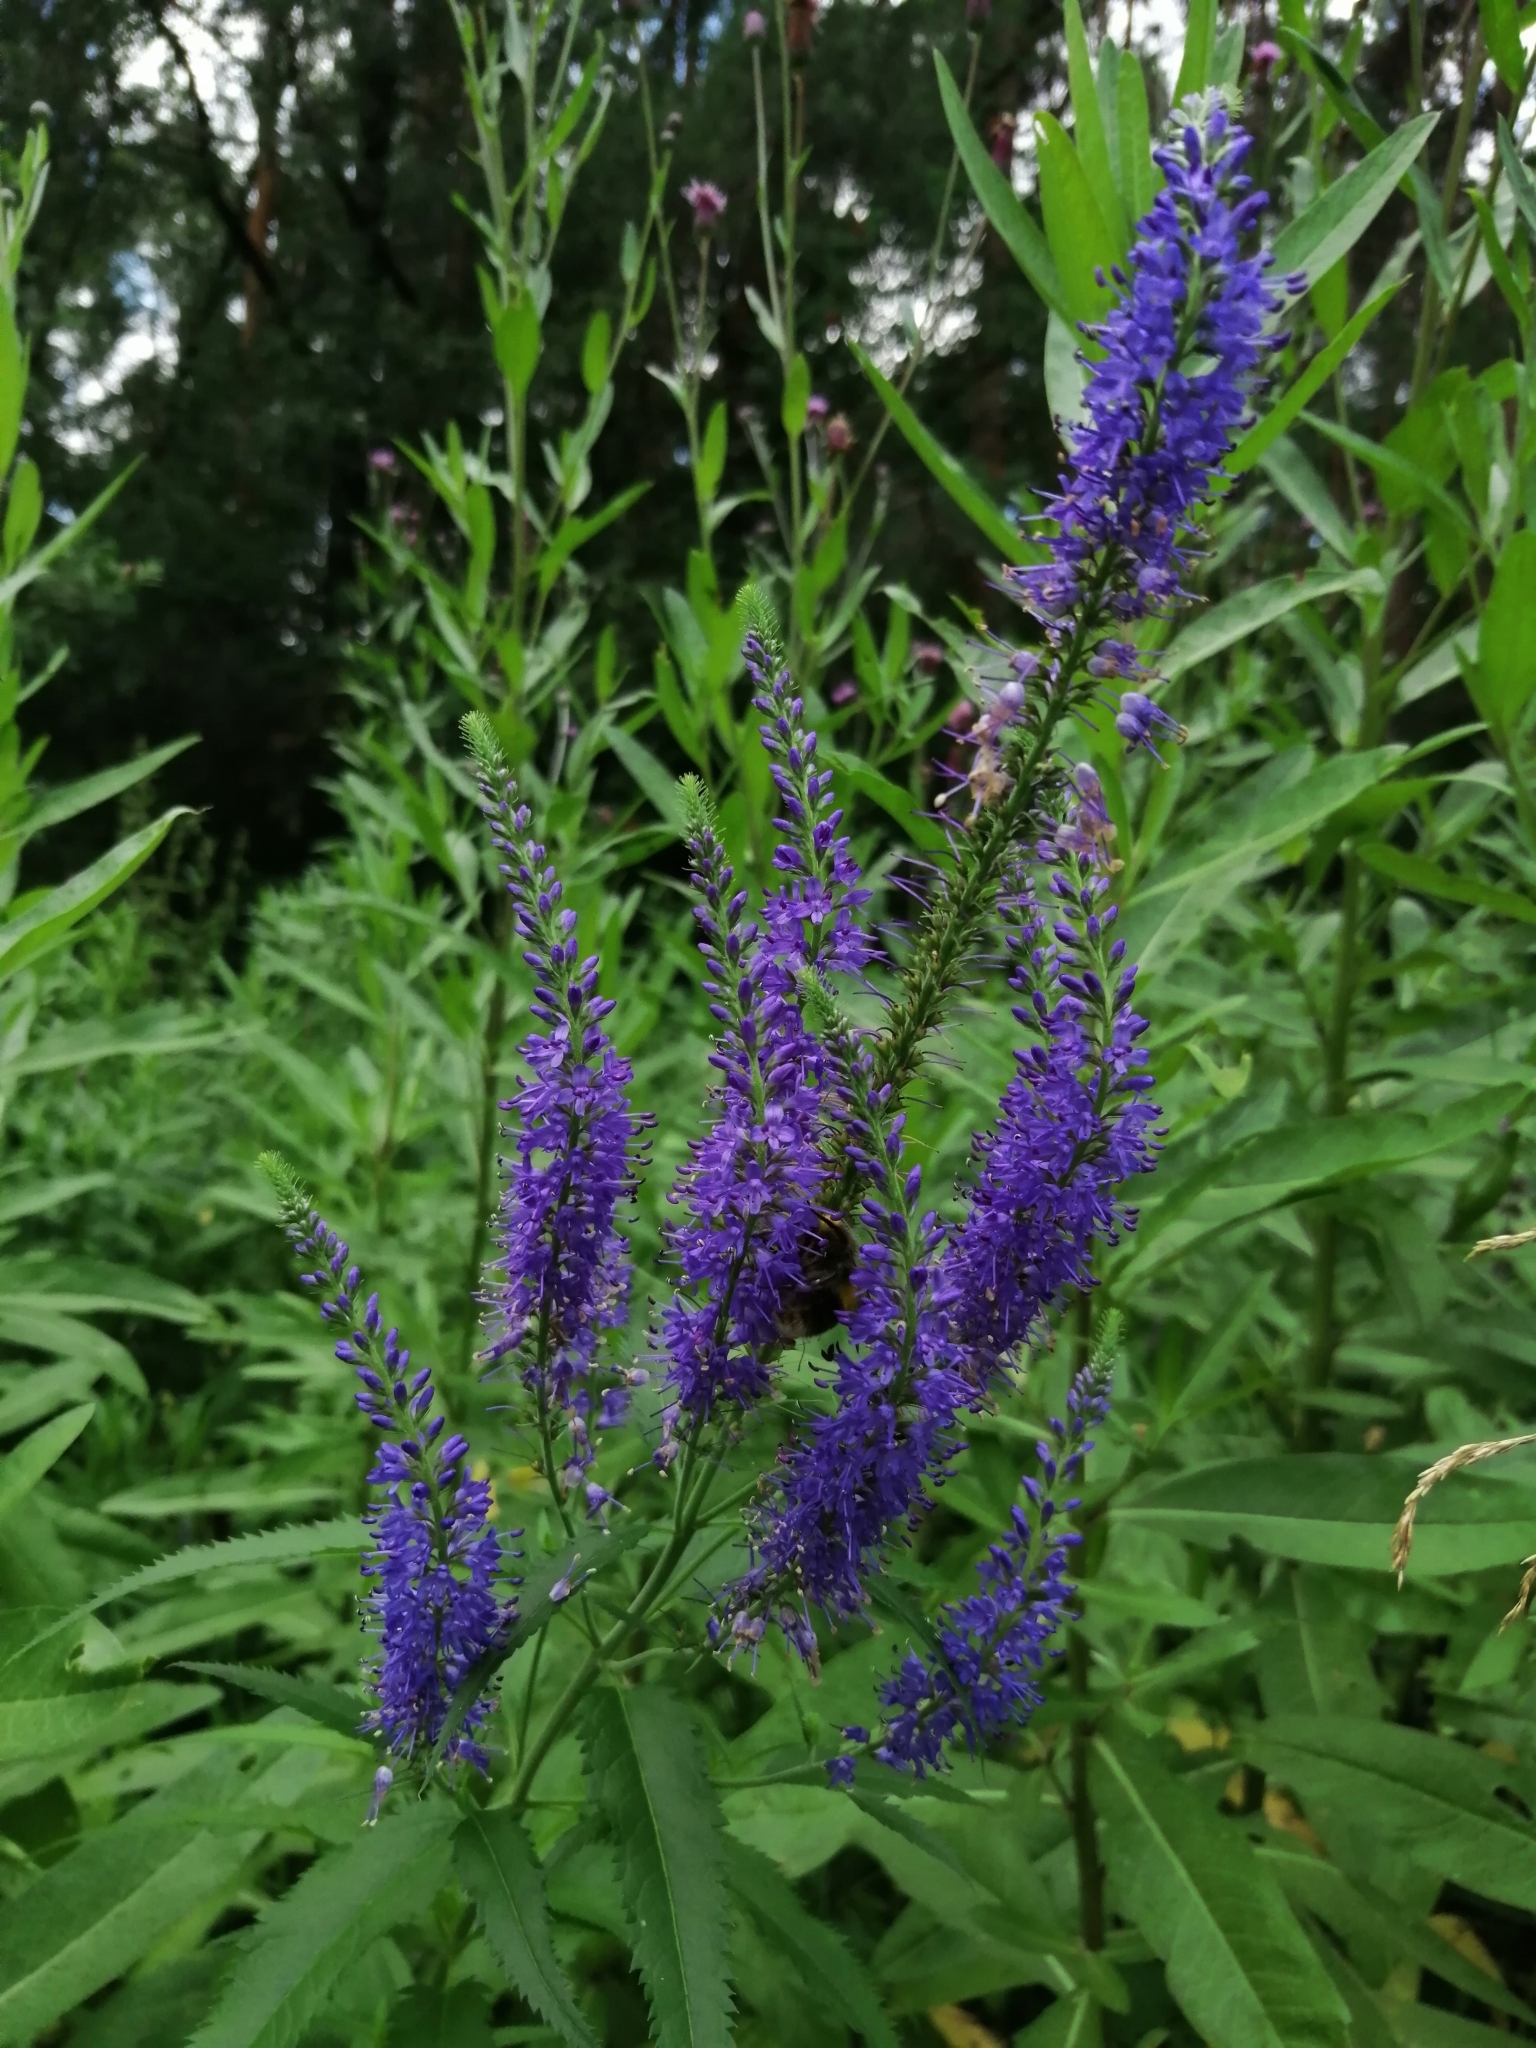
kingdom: Plantae
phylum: Tracheophyta
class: Magnoliopsida
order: Lamiales
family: Plantaginaceae
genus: Veronica
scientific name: Veronica longifolia
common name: Garden speedwell
